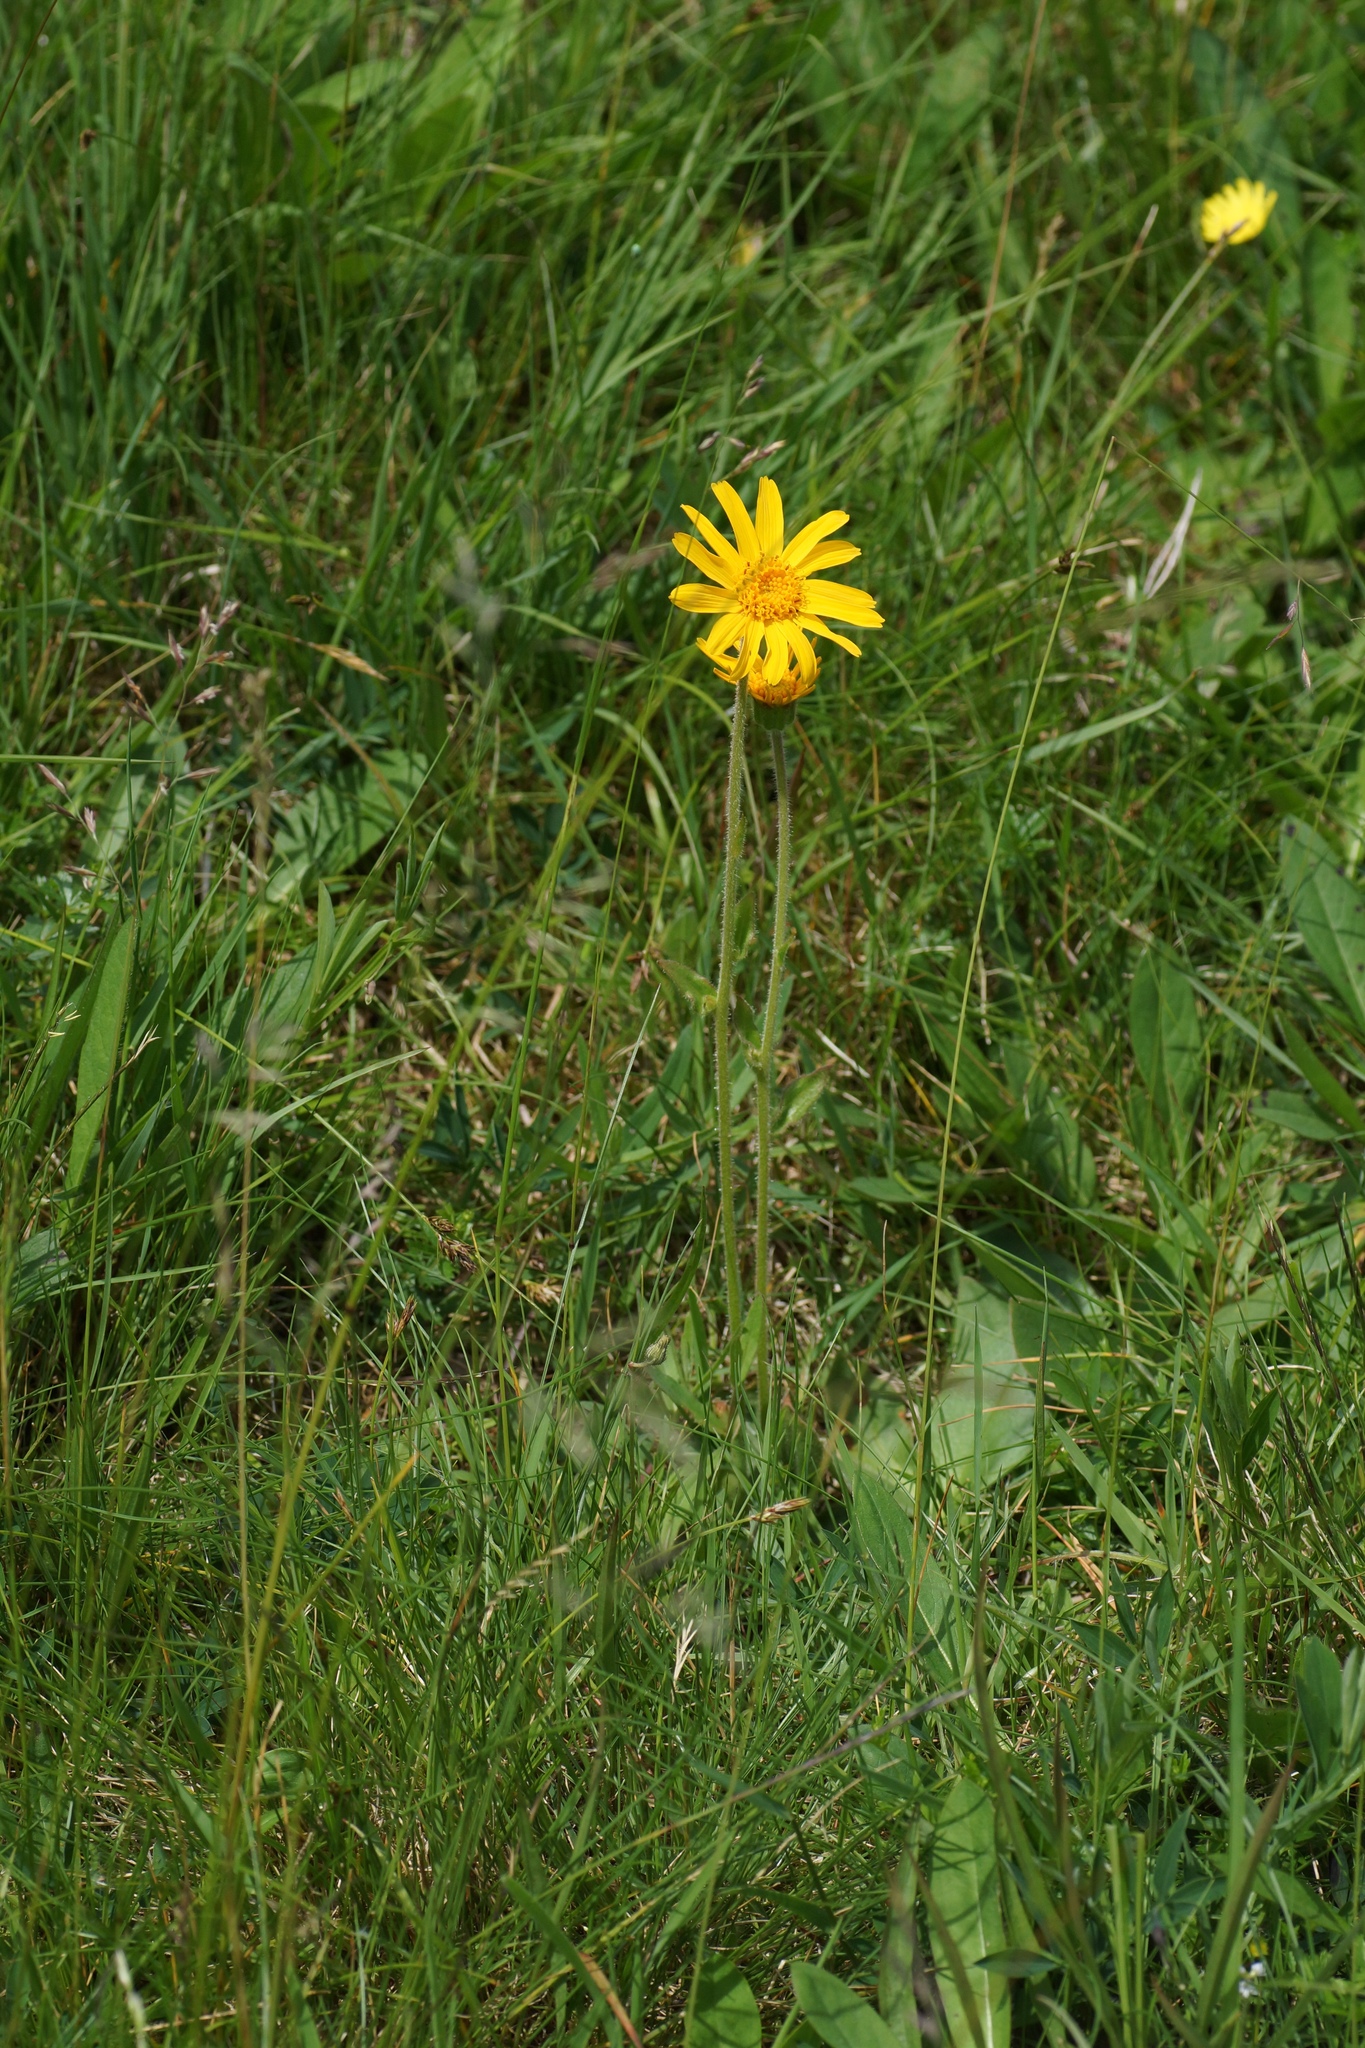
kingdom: Plantae
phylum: Tracheophyta
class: Magnoliopsida
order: Asterales
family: Asteraceae
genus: Arnica
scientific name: Arnica montana
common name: Leopard's bane
